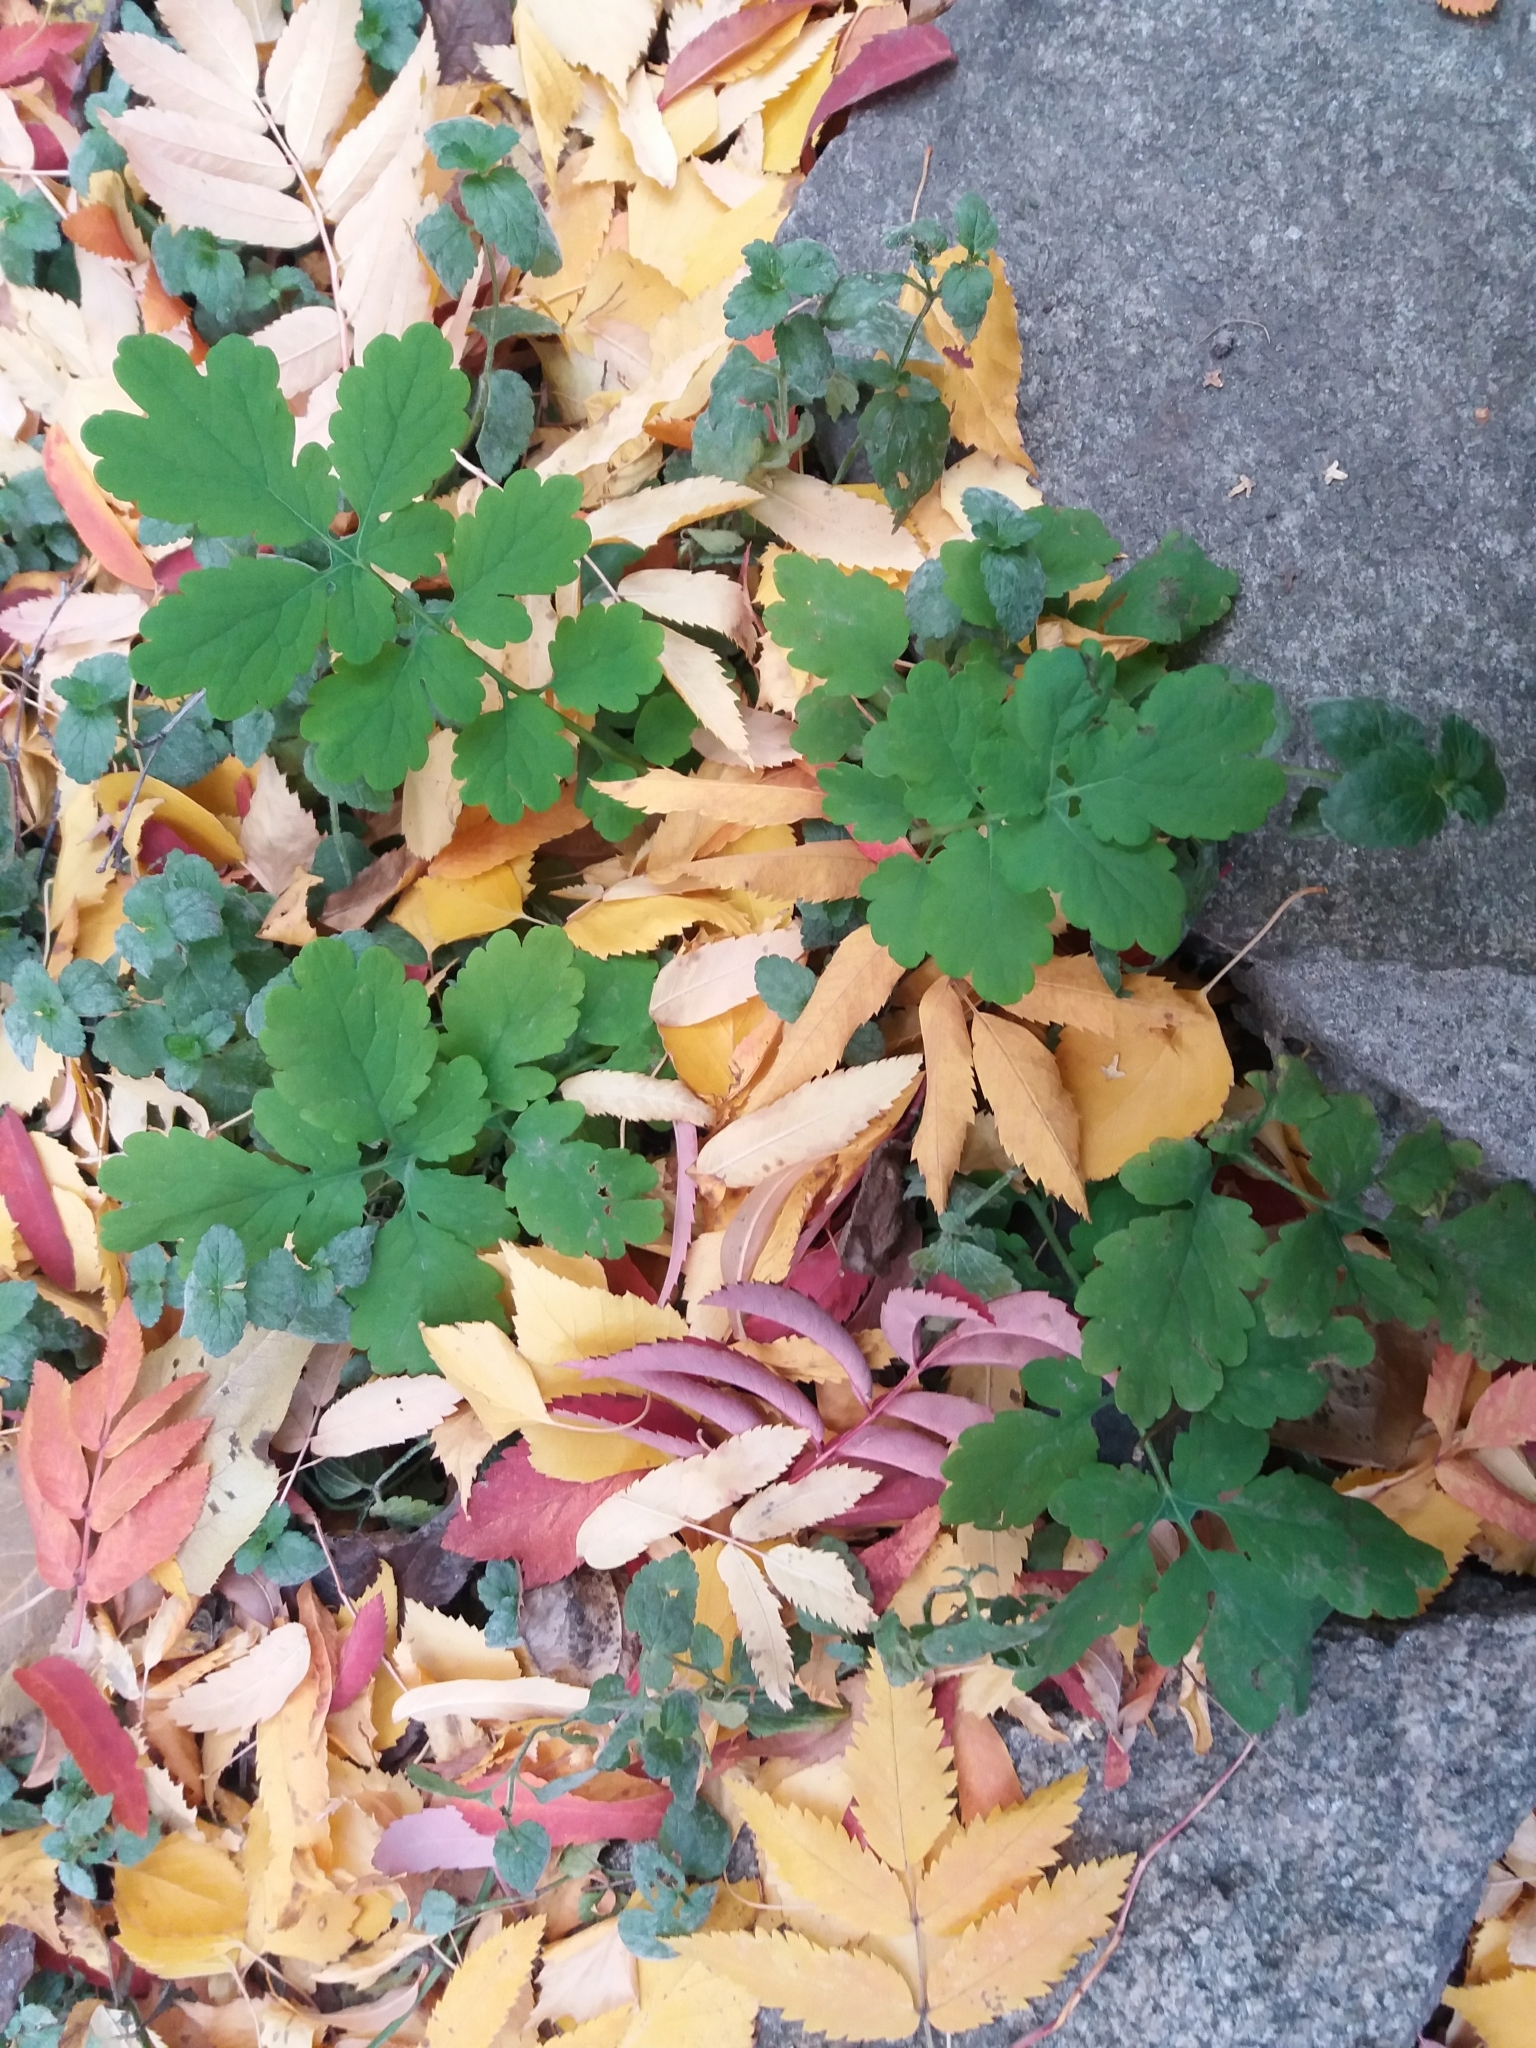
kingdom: Plantae
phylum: Tracheophyta
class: Magnoliopsida
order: Ranunculales
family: Papaveraceae
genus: Chelidonium
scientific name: Chelidonium majus
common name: Greater celandine
